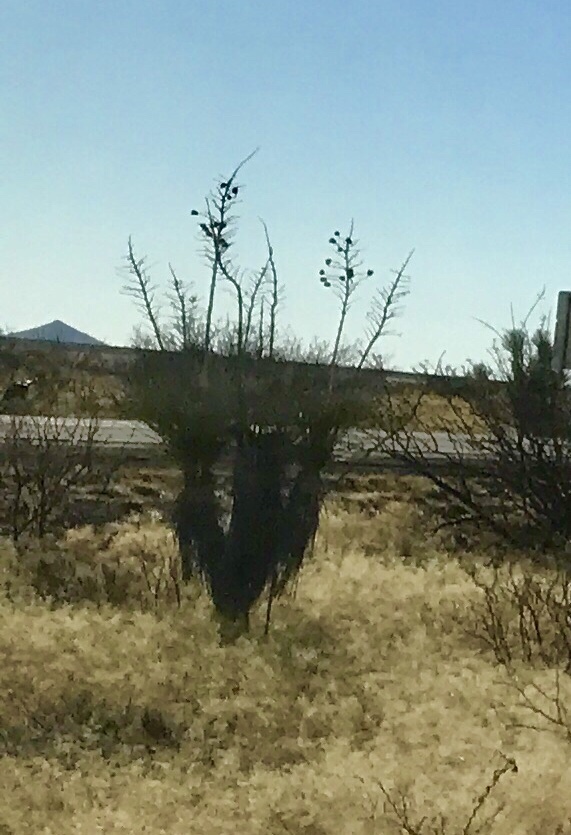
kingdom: Plantae
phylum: Tracheophyta
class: Liliopsida
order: Asparagales
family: Asparagaceae
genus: Yucca
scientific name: Yucca elata
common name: Palmella
